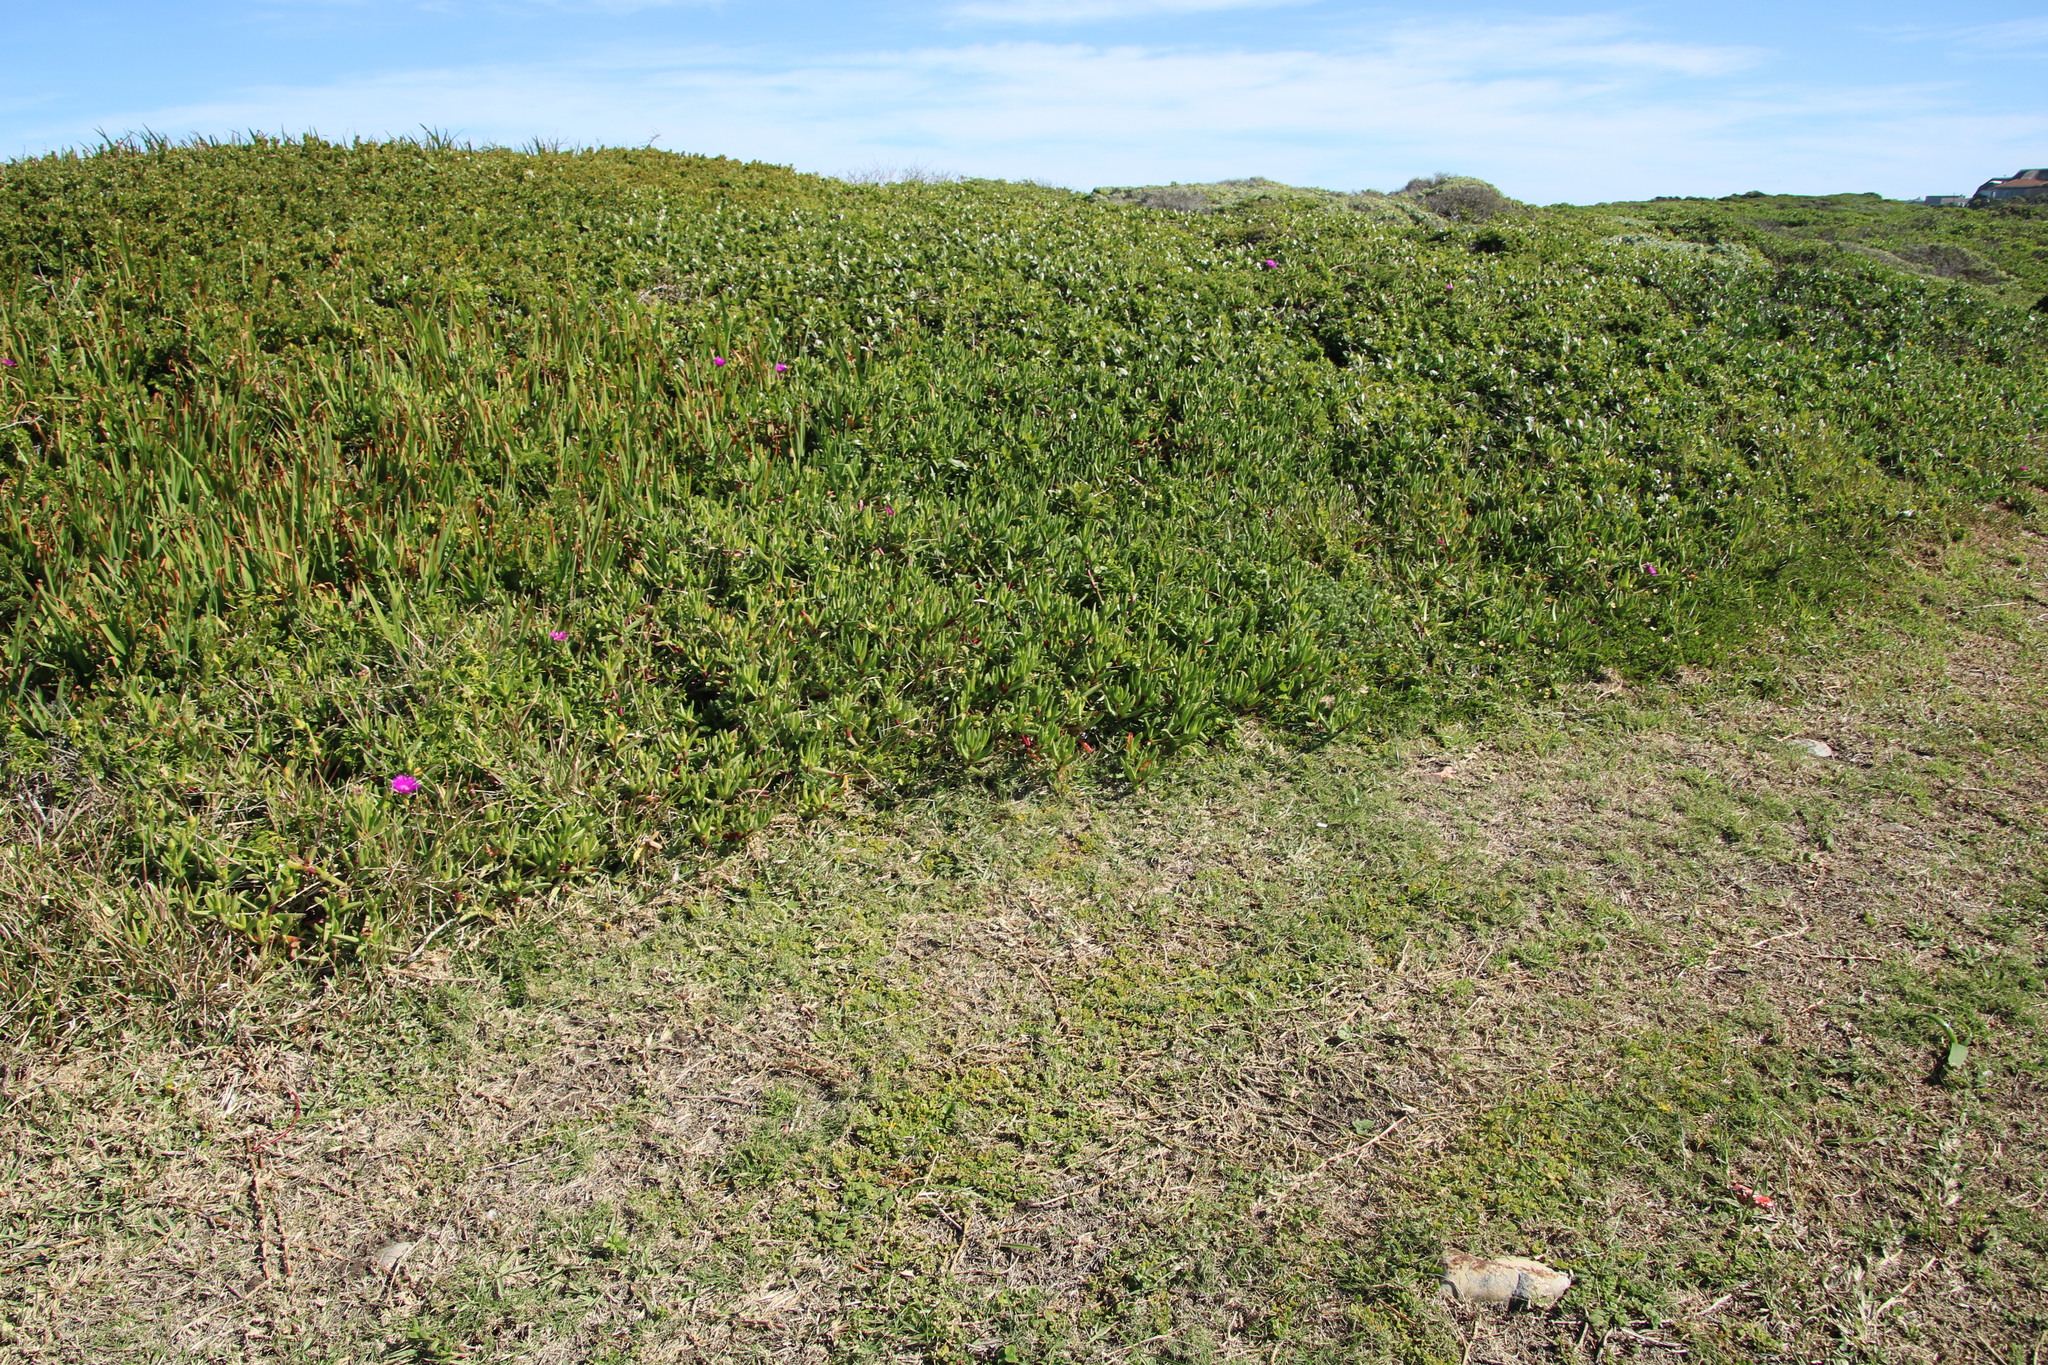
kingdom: Plantae
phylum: Tracheophyta
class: Liliopsida
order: Poales
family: Poaceae
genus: Stenotaphrum
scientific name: Stenotaphrum secundatum
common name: St. augustine grass
